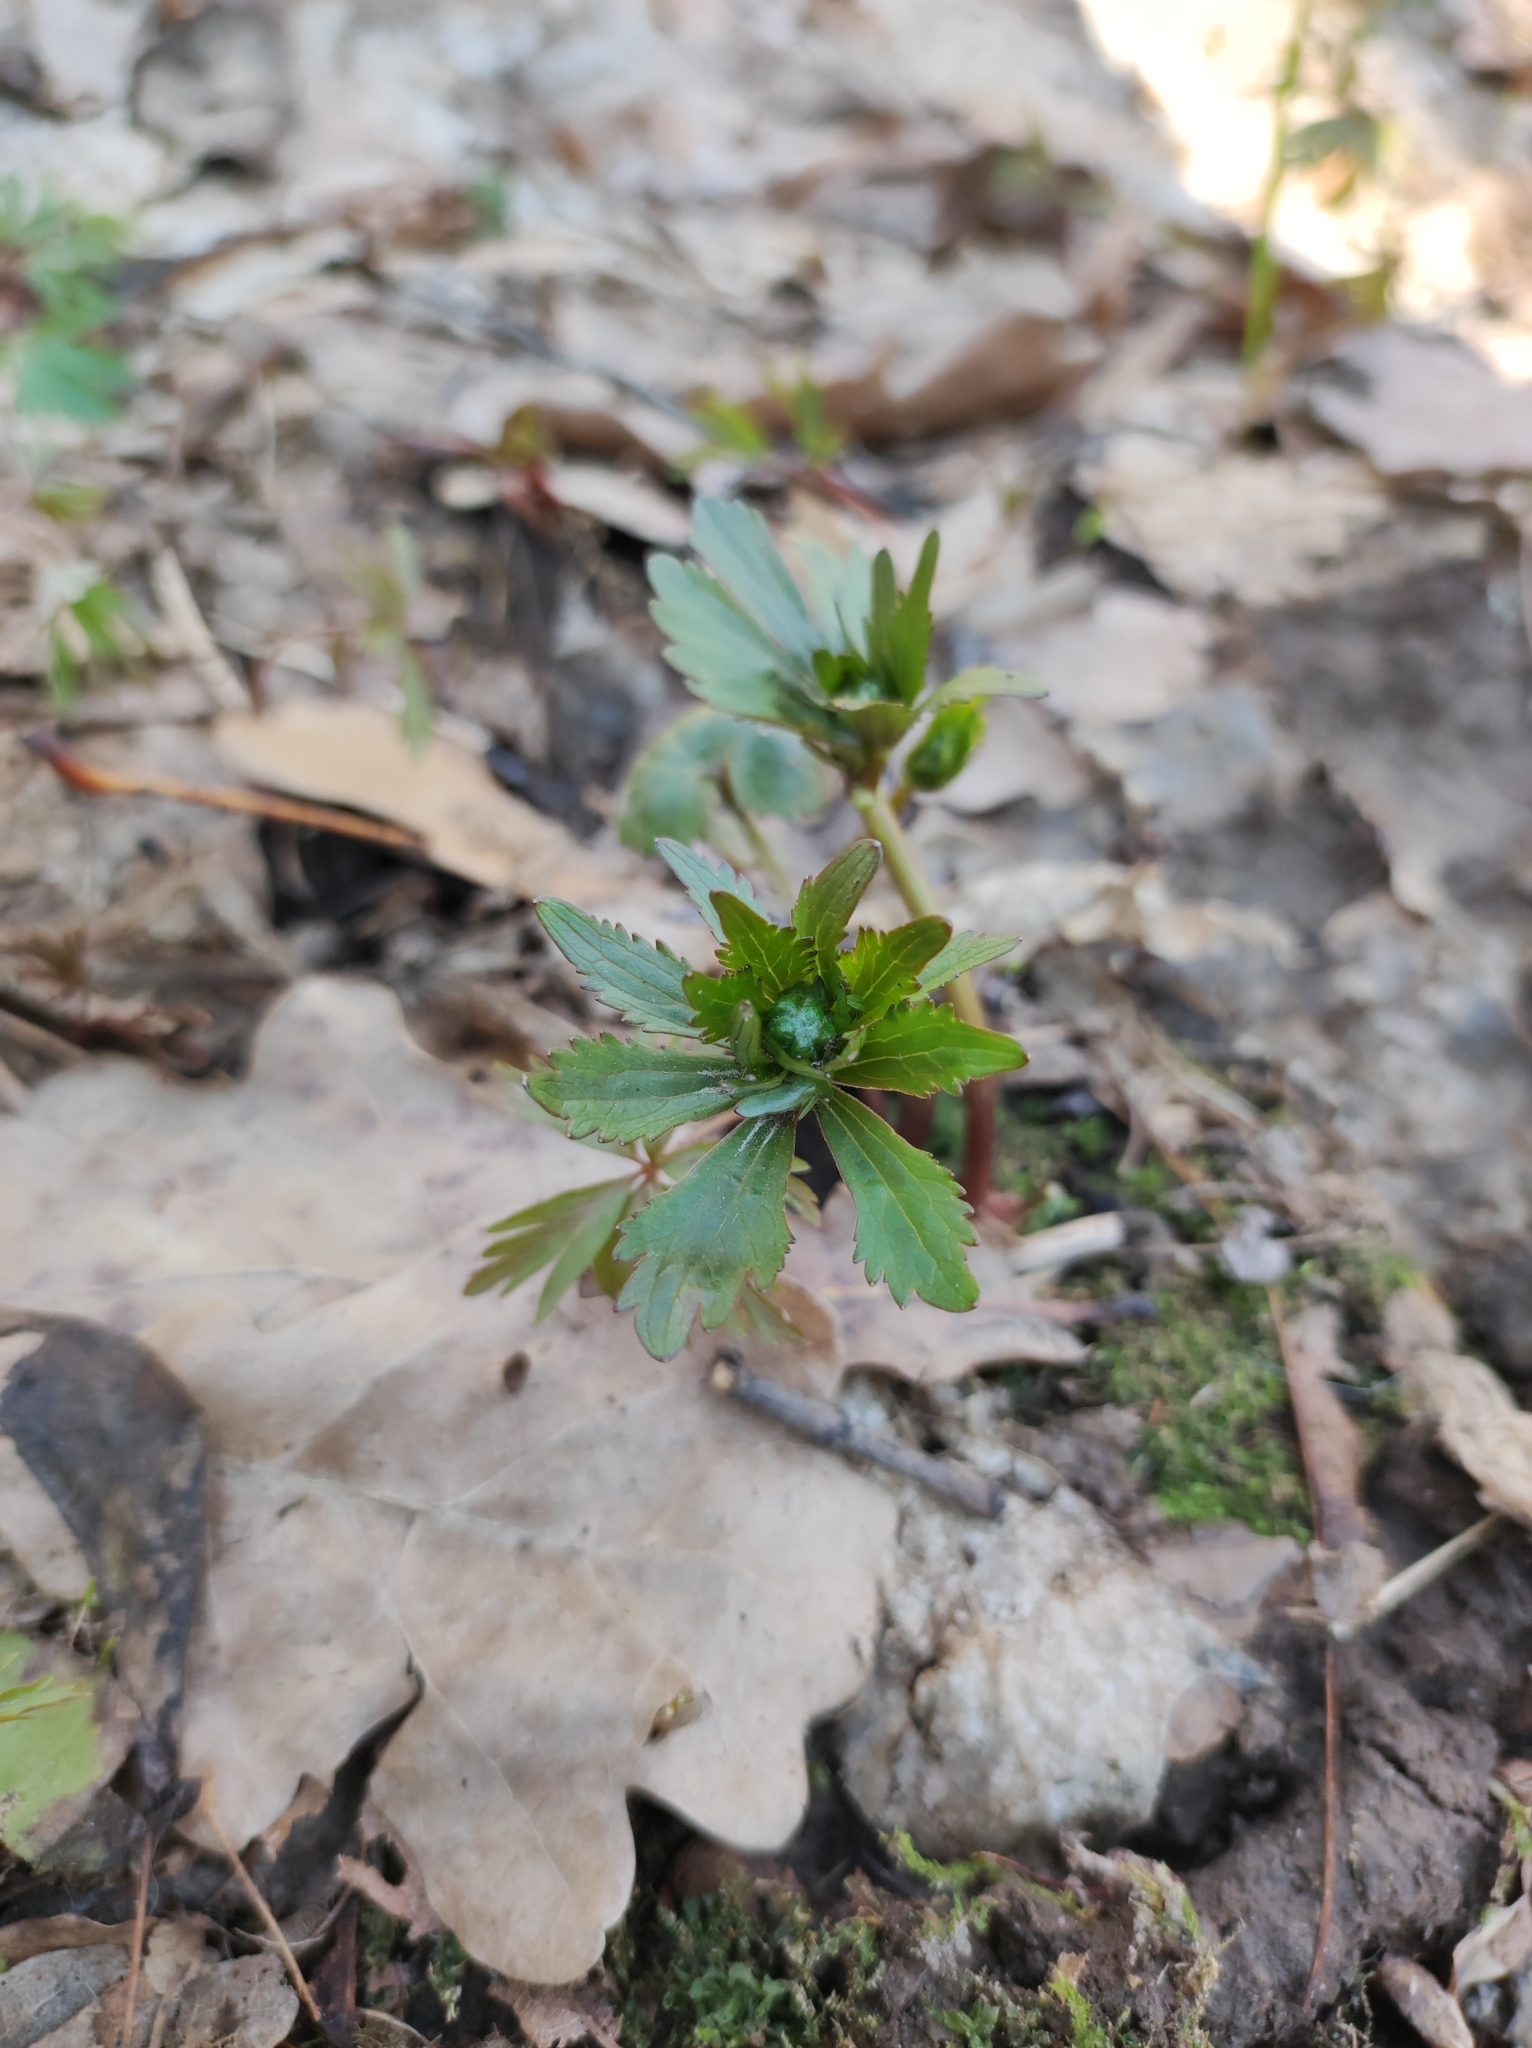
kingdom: Plantae
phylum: Tracheophyta
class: Magnoliopsida
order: Ranunculales
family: Ranunculaceae
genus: Ranunculus
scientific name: Ranunculus cassubicus
